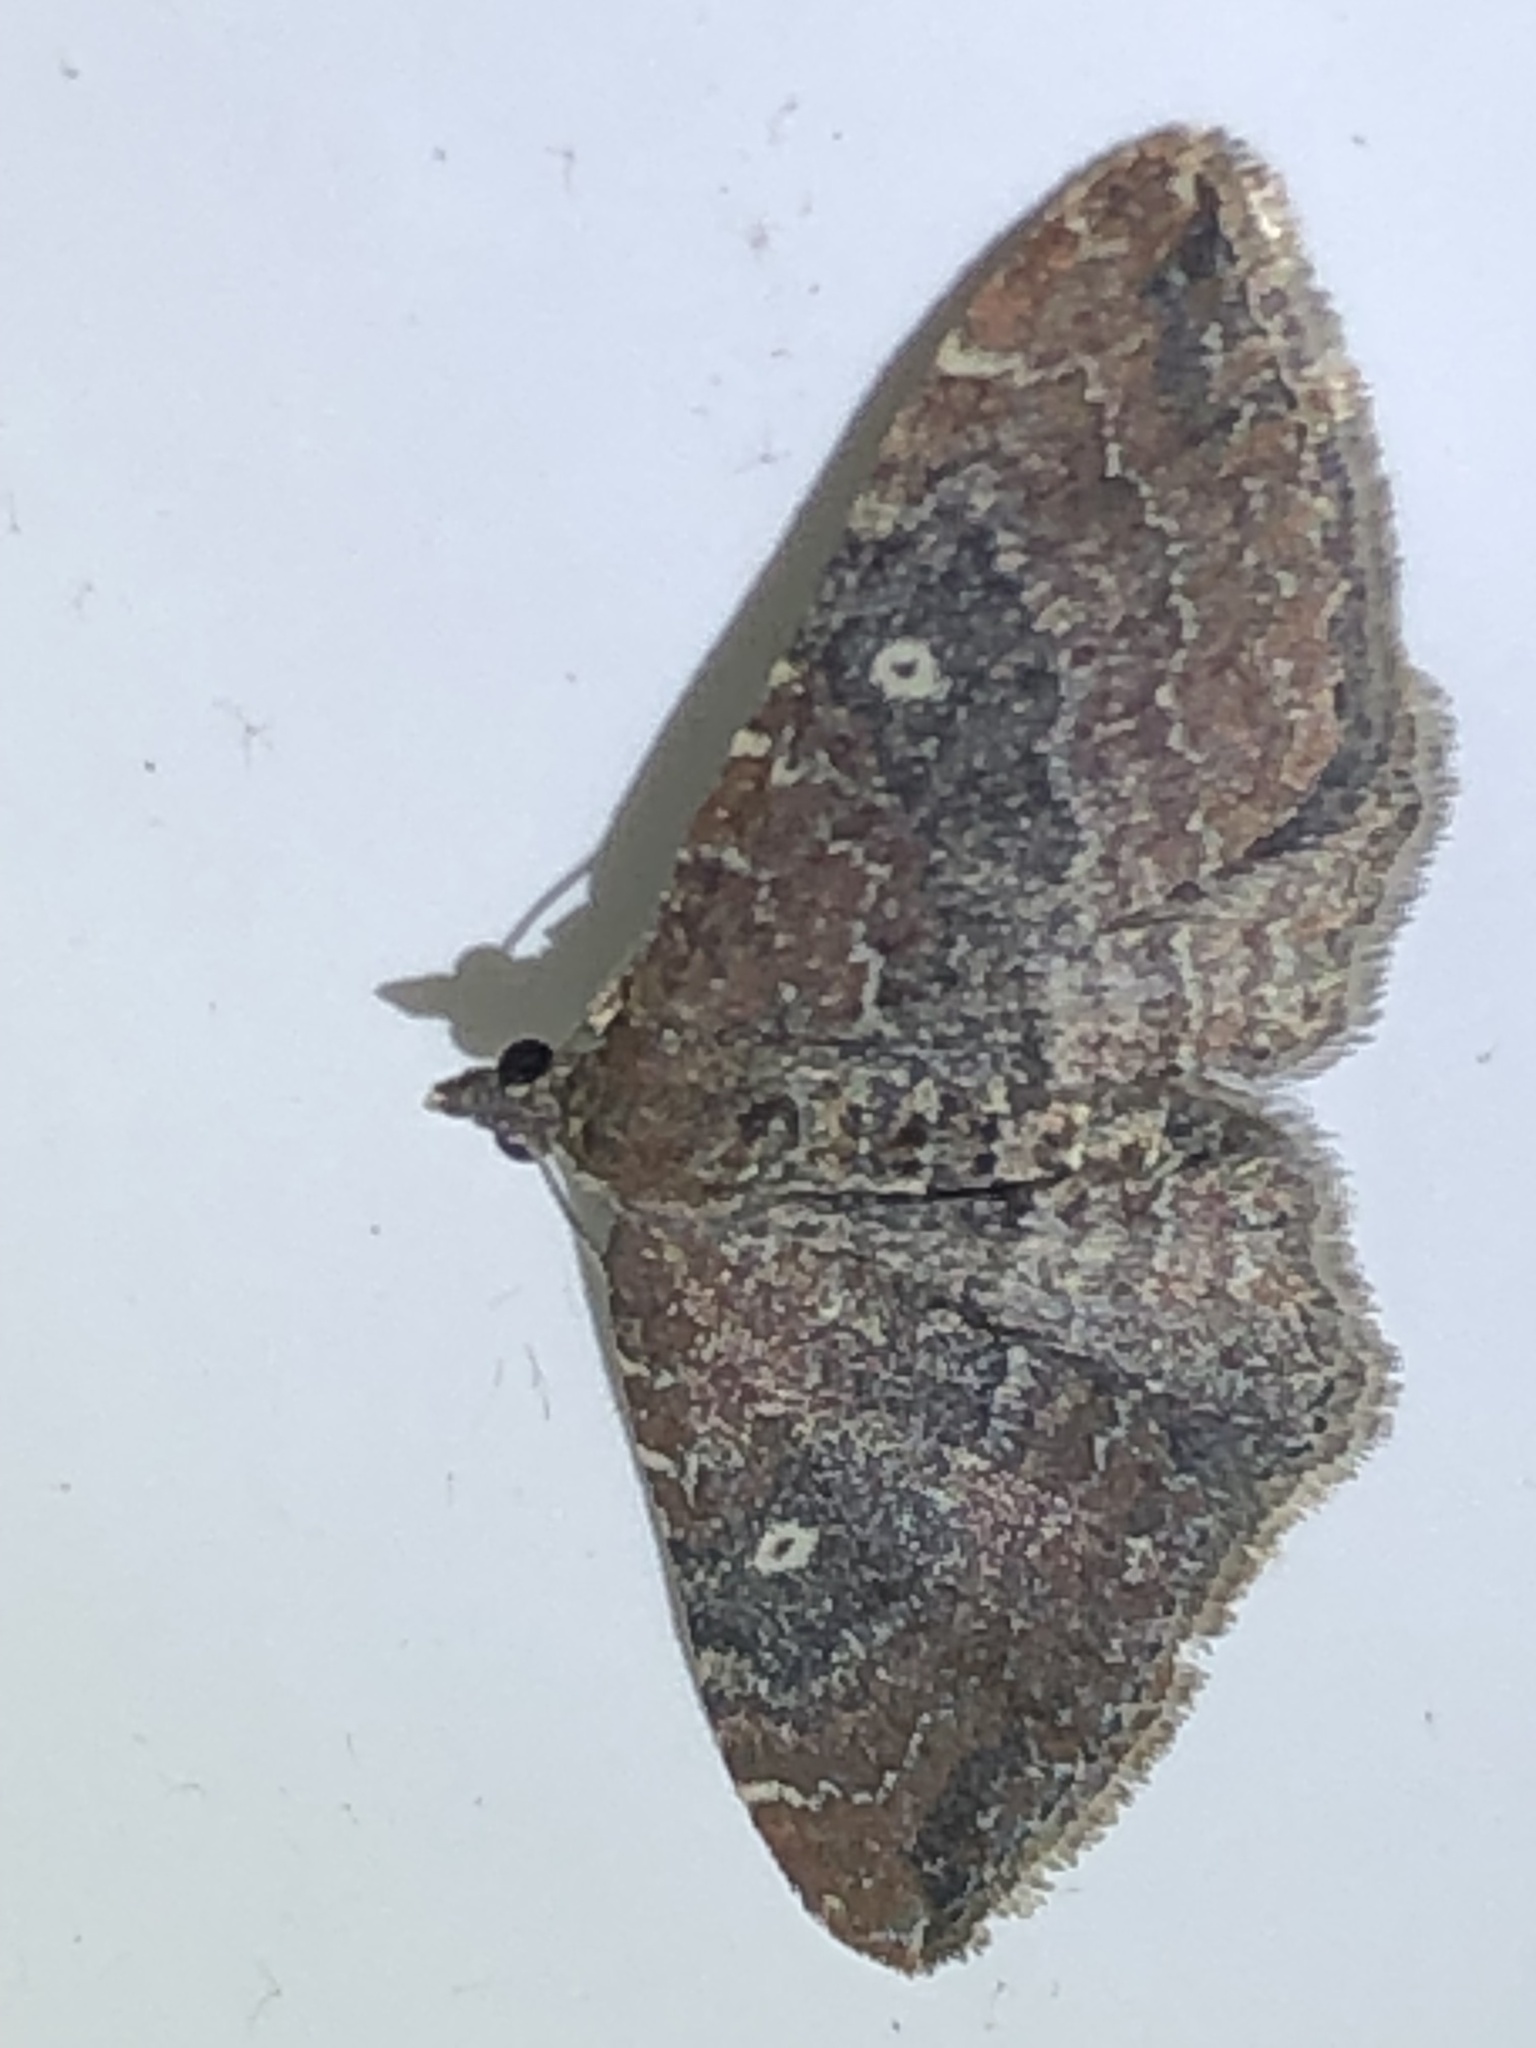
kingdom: Animalia
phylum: Arthropoda
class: Insecta
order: Lepidoptera
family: Geometridae
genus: Orthonama
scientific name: Orthonama obstipata
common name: The gem
